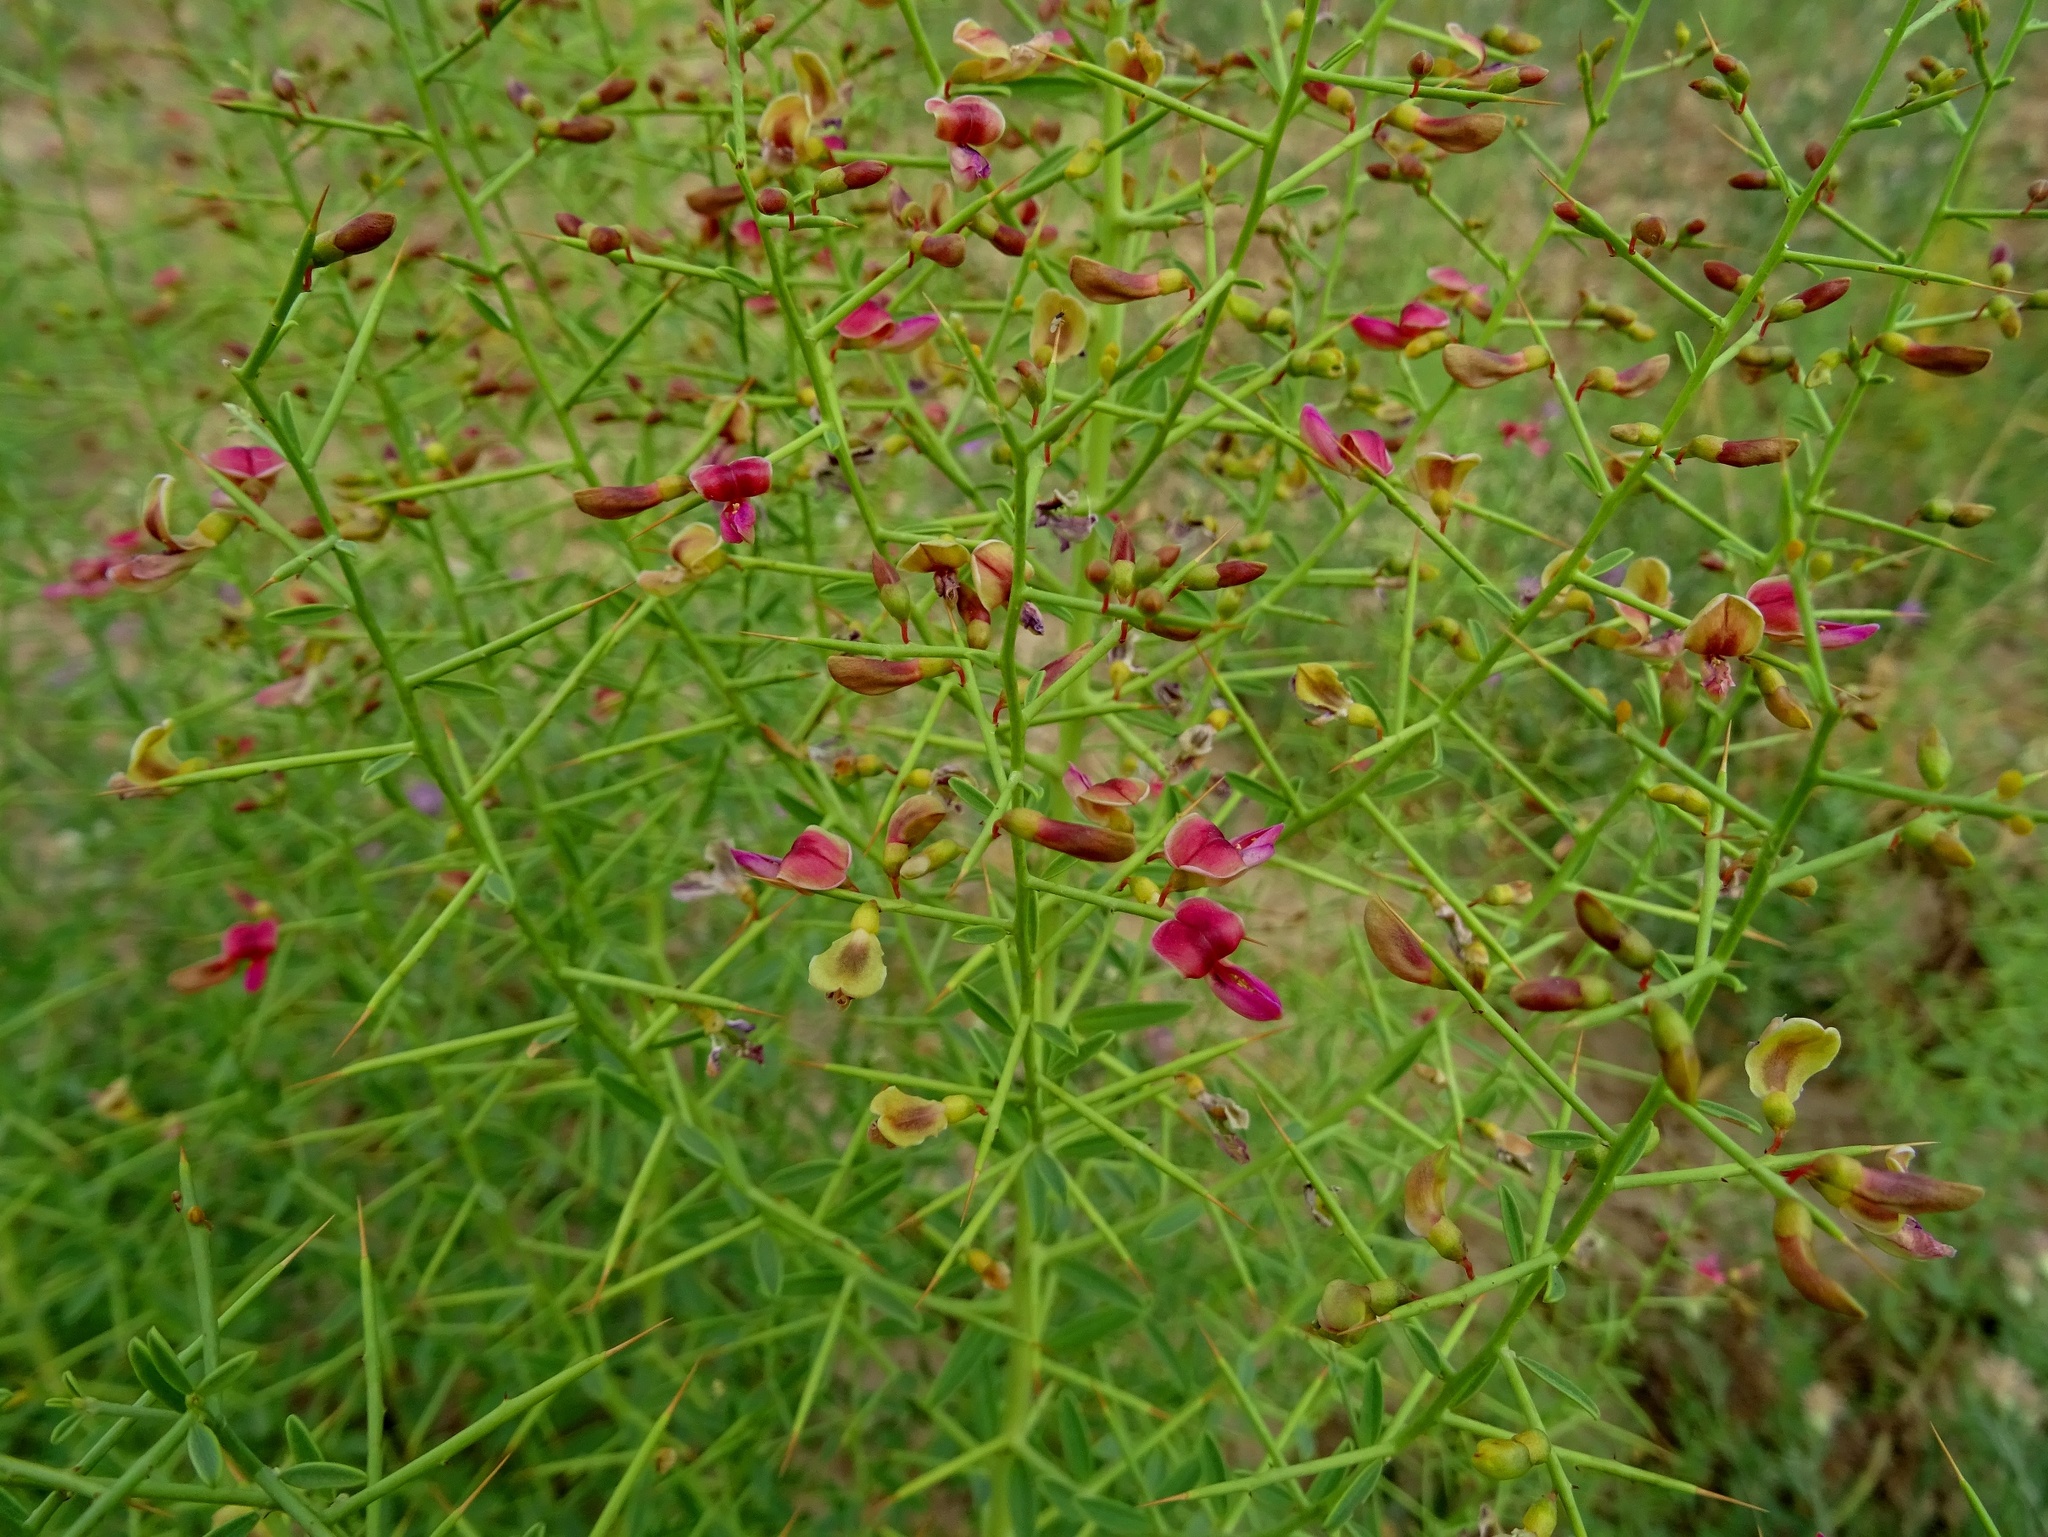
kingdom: Plantae
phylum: Tracheophyta
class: Magnoliopsida
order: Fabales
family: Fabaceae
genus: Alhagi
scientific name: Alhagi maurorum
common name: Camelthorn
